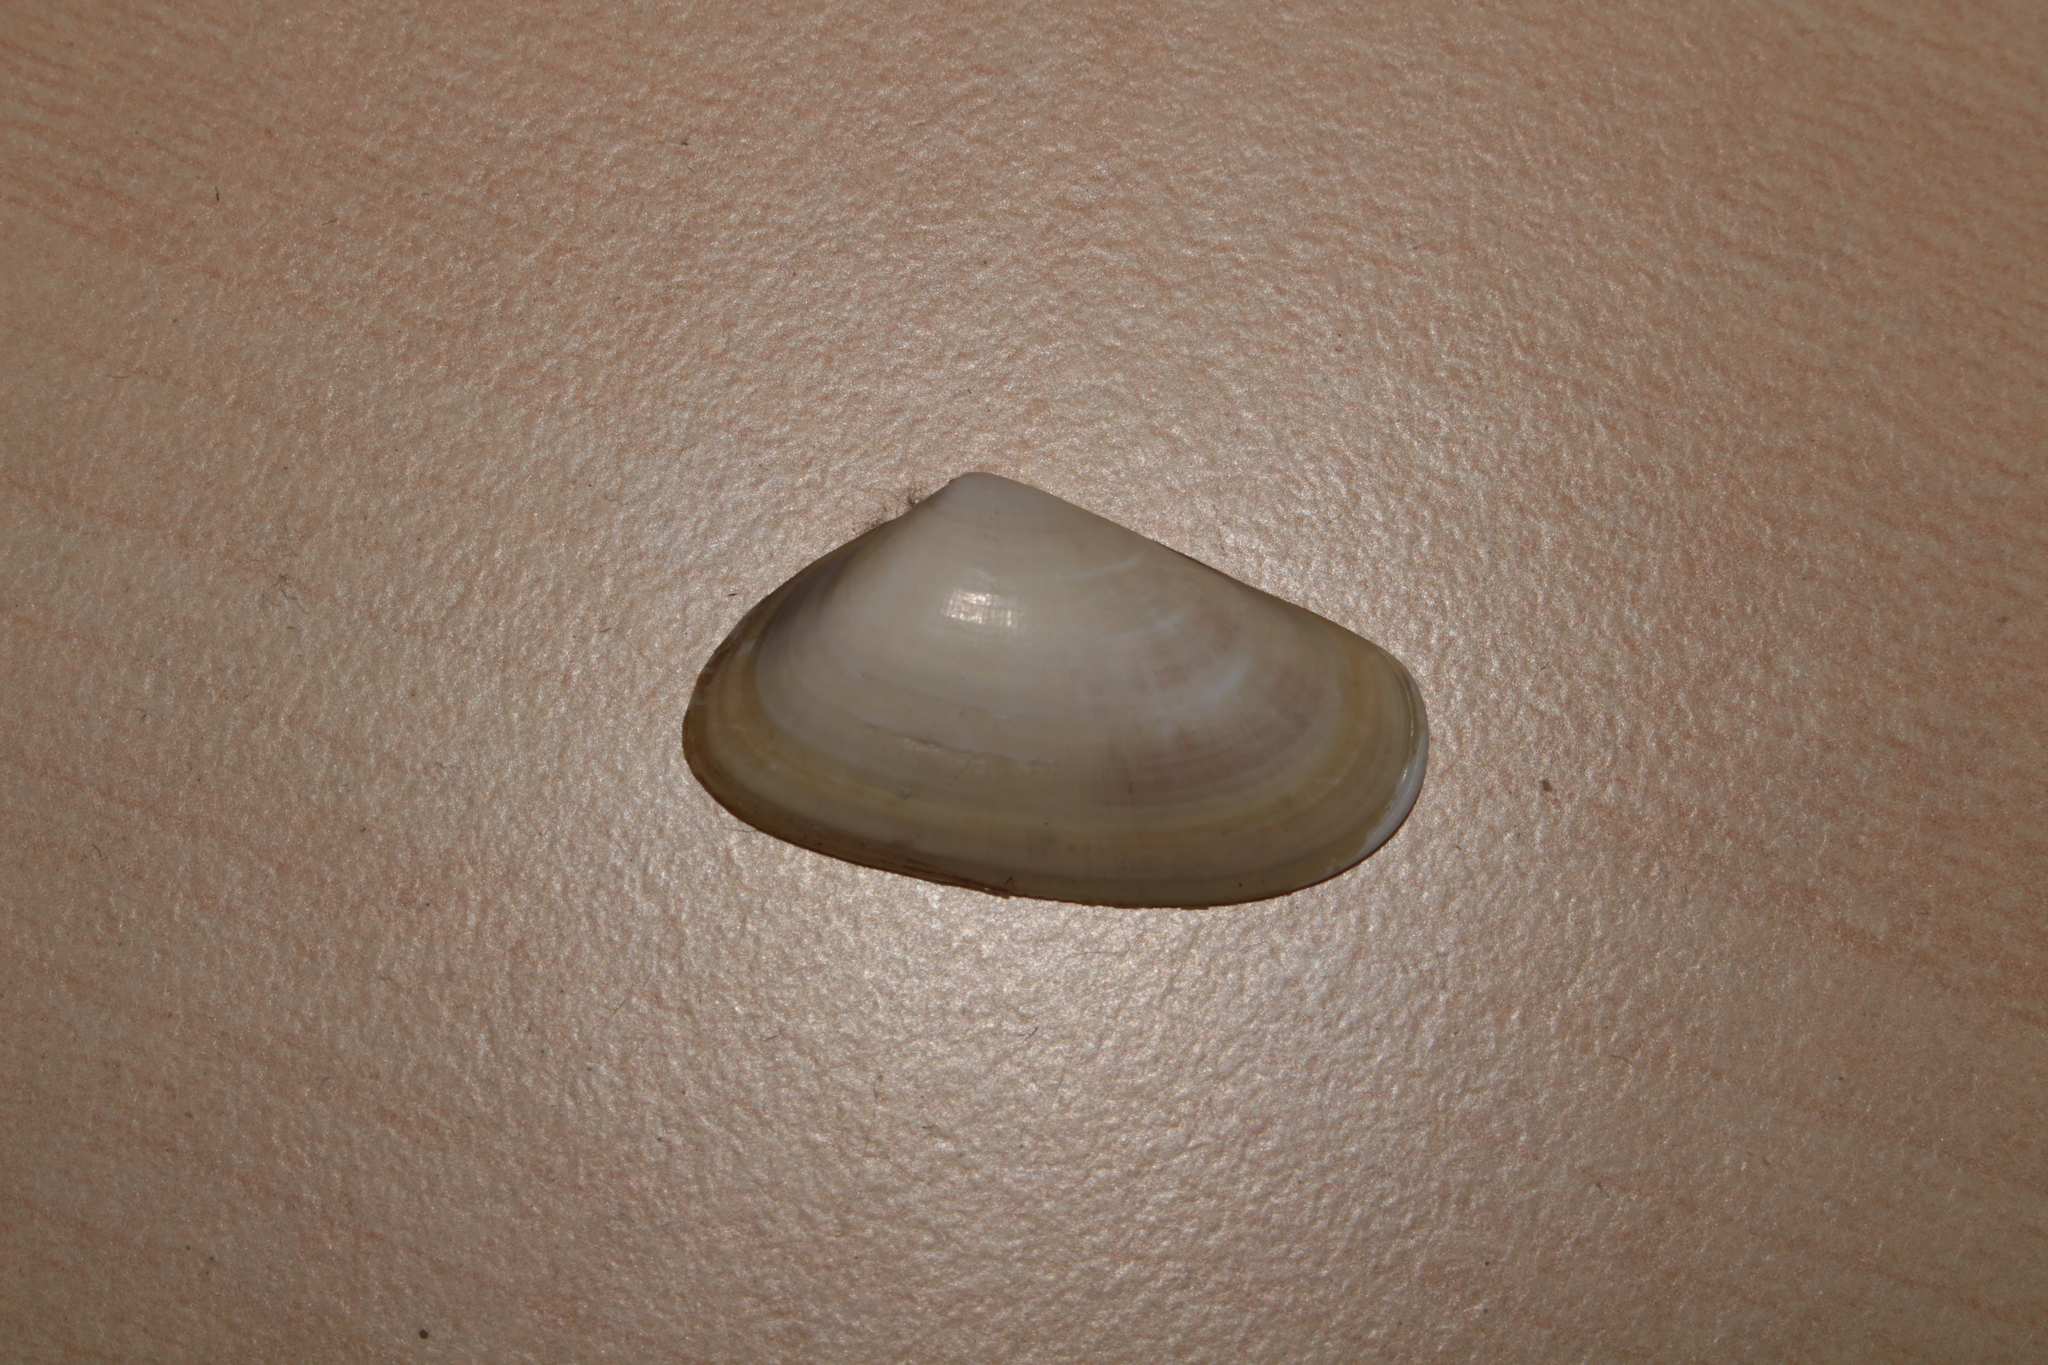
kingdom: Animalia
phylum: Mollusca
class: Bivalvia
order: Cardiida
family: Donacidae
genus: Donax
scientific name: Donax trunculus
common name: Truncate donax
